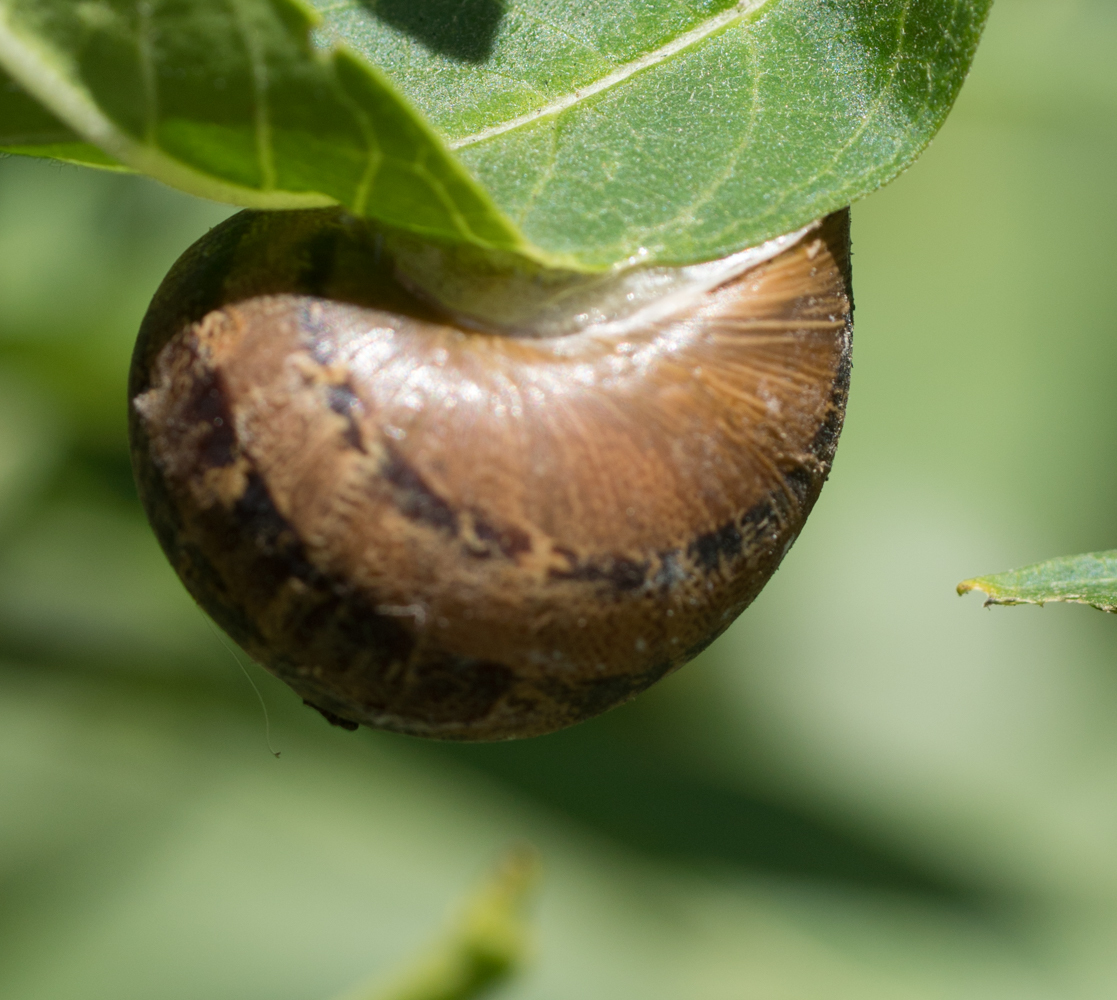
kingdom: Animalia
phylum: Mollusca
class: Gastropoda
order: Stylommatophora
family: Helicidae
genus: Cornu
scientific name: Cornu aspersum
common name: Brown garden snail
